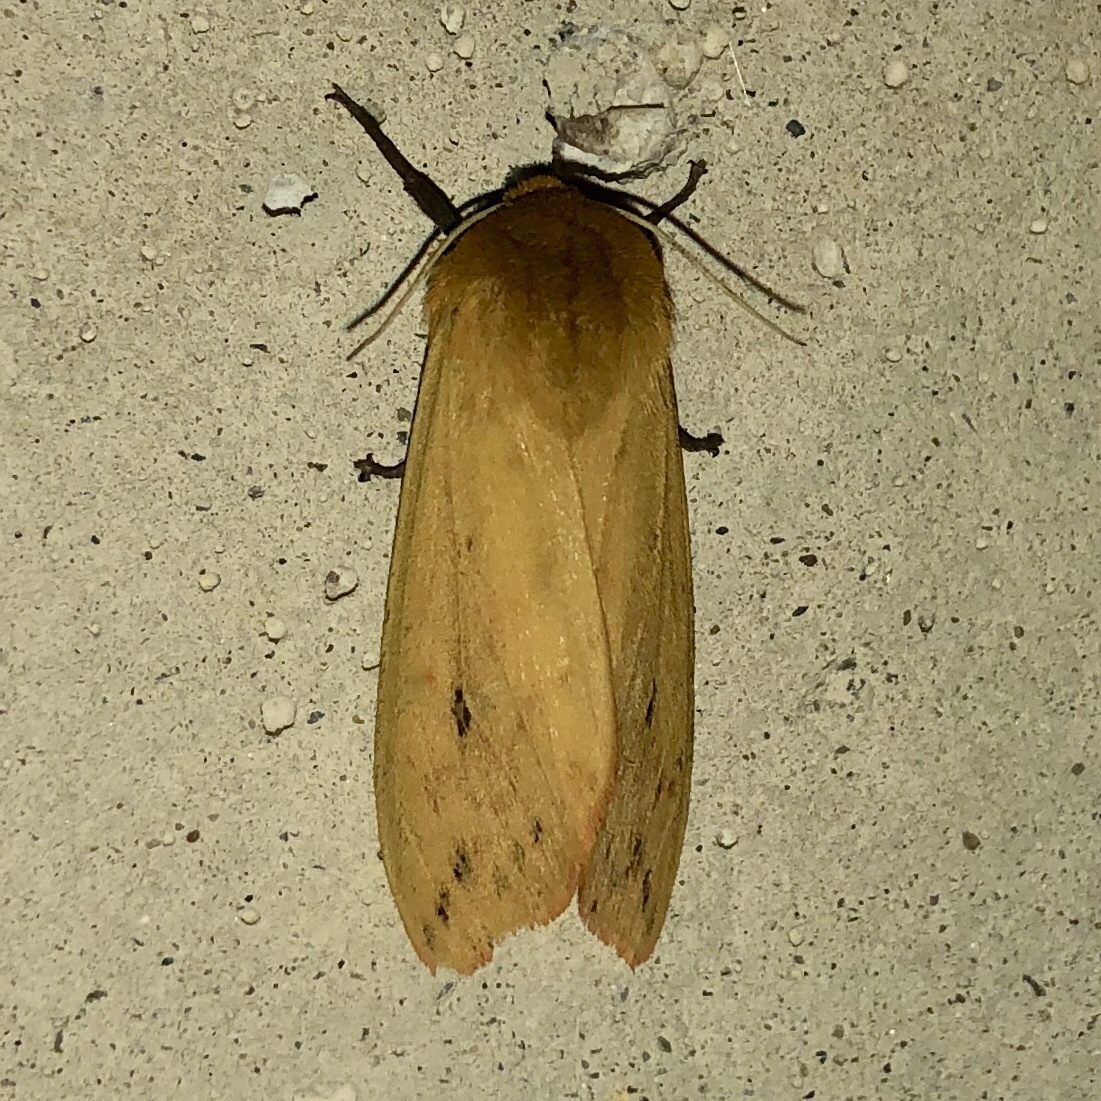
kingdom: Animalia
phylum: Arthropoda
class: Insecta
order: Lepidoptera
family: Erebidae
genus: Pyrrharctia
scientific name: Pyrrharctia isabella
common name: Isabella tiger moth
